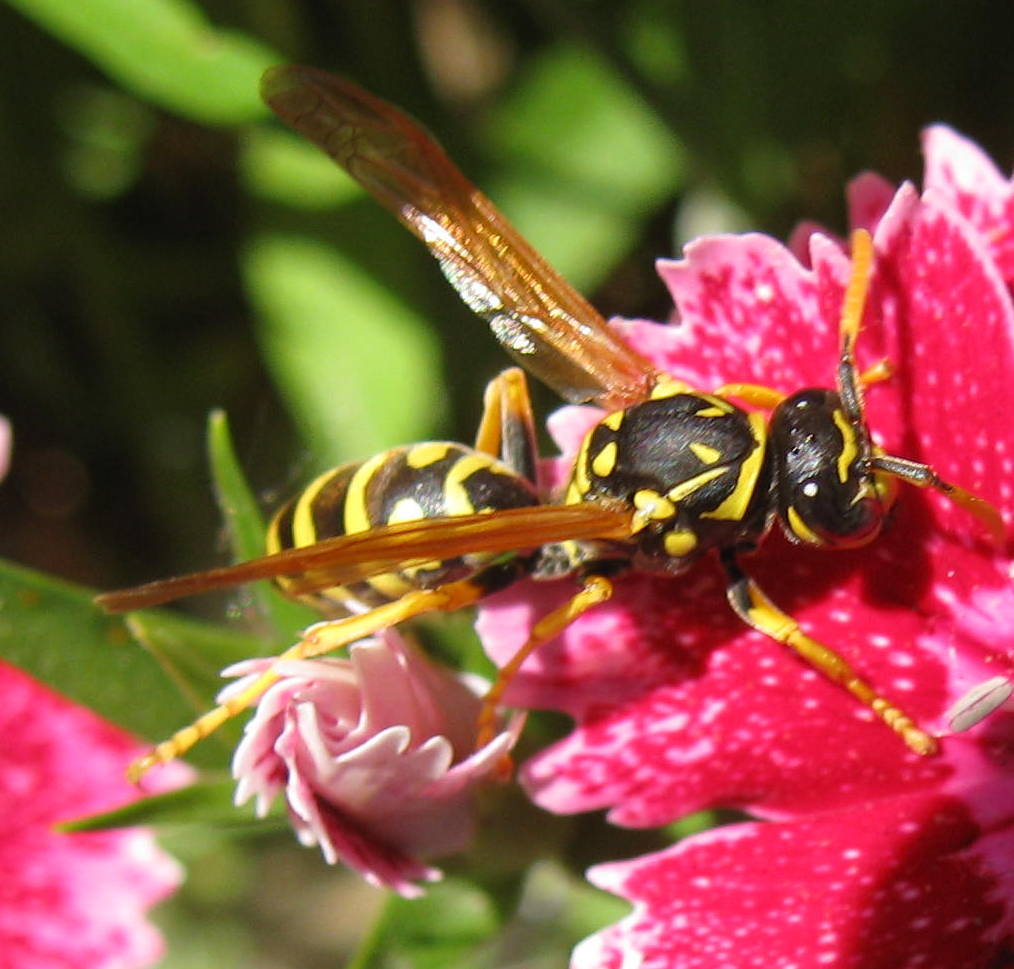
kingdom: Animalia
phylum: Arthropoda
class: Insecta
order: Hymenoptera
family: Eumenidae
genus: Polistes
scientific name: Polistes dominula
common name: Paper wasp
